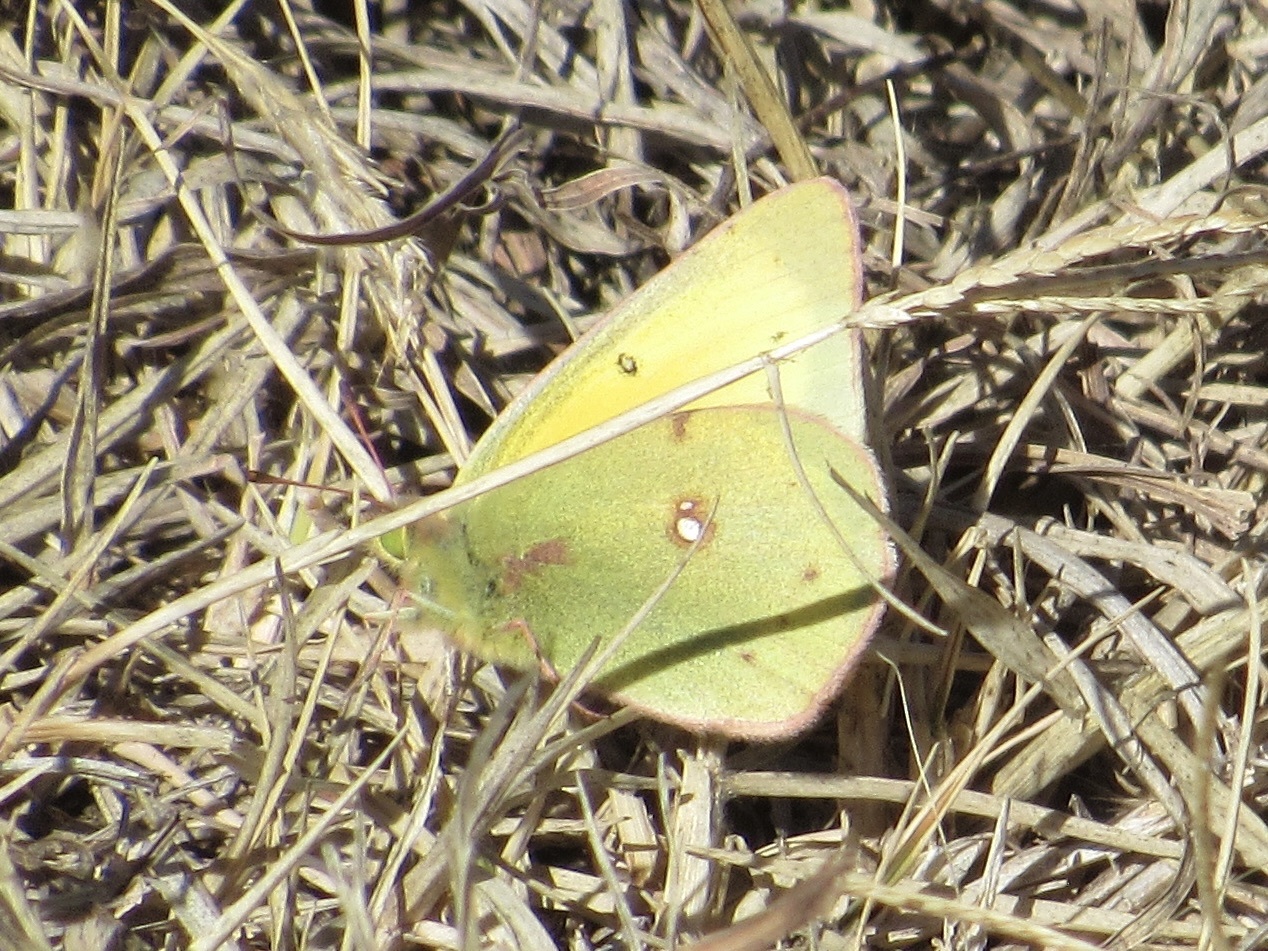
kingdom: Animalia
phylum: Arthropoda
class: Insecta
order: Lepidoptera
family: Pieridae
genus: Colias
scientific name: Colias eurytheme
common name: Alfalfa butterfly
